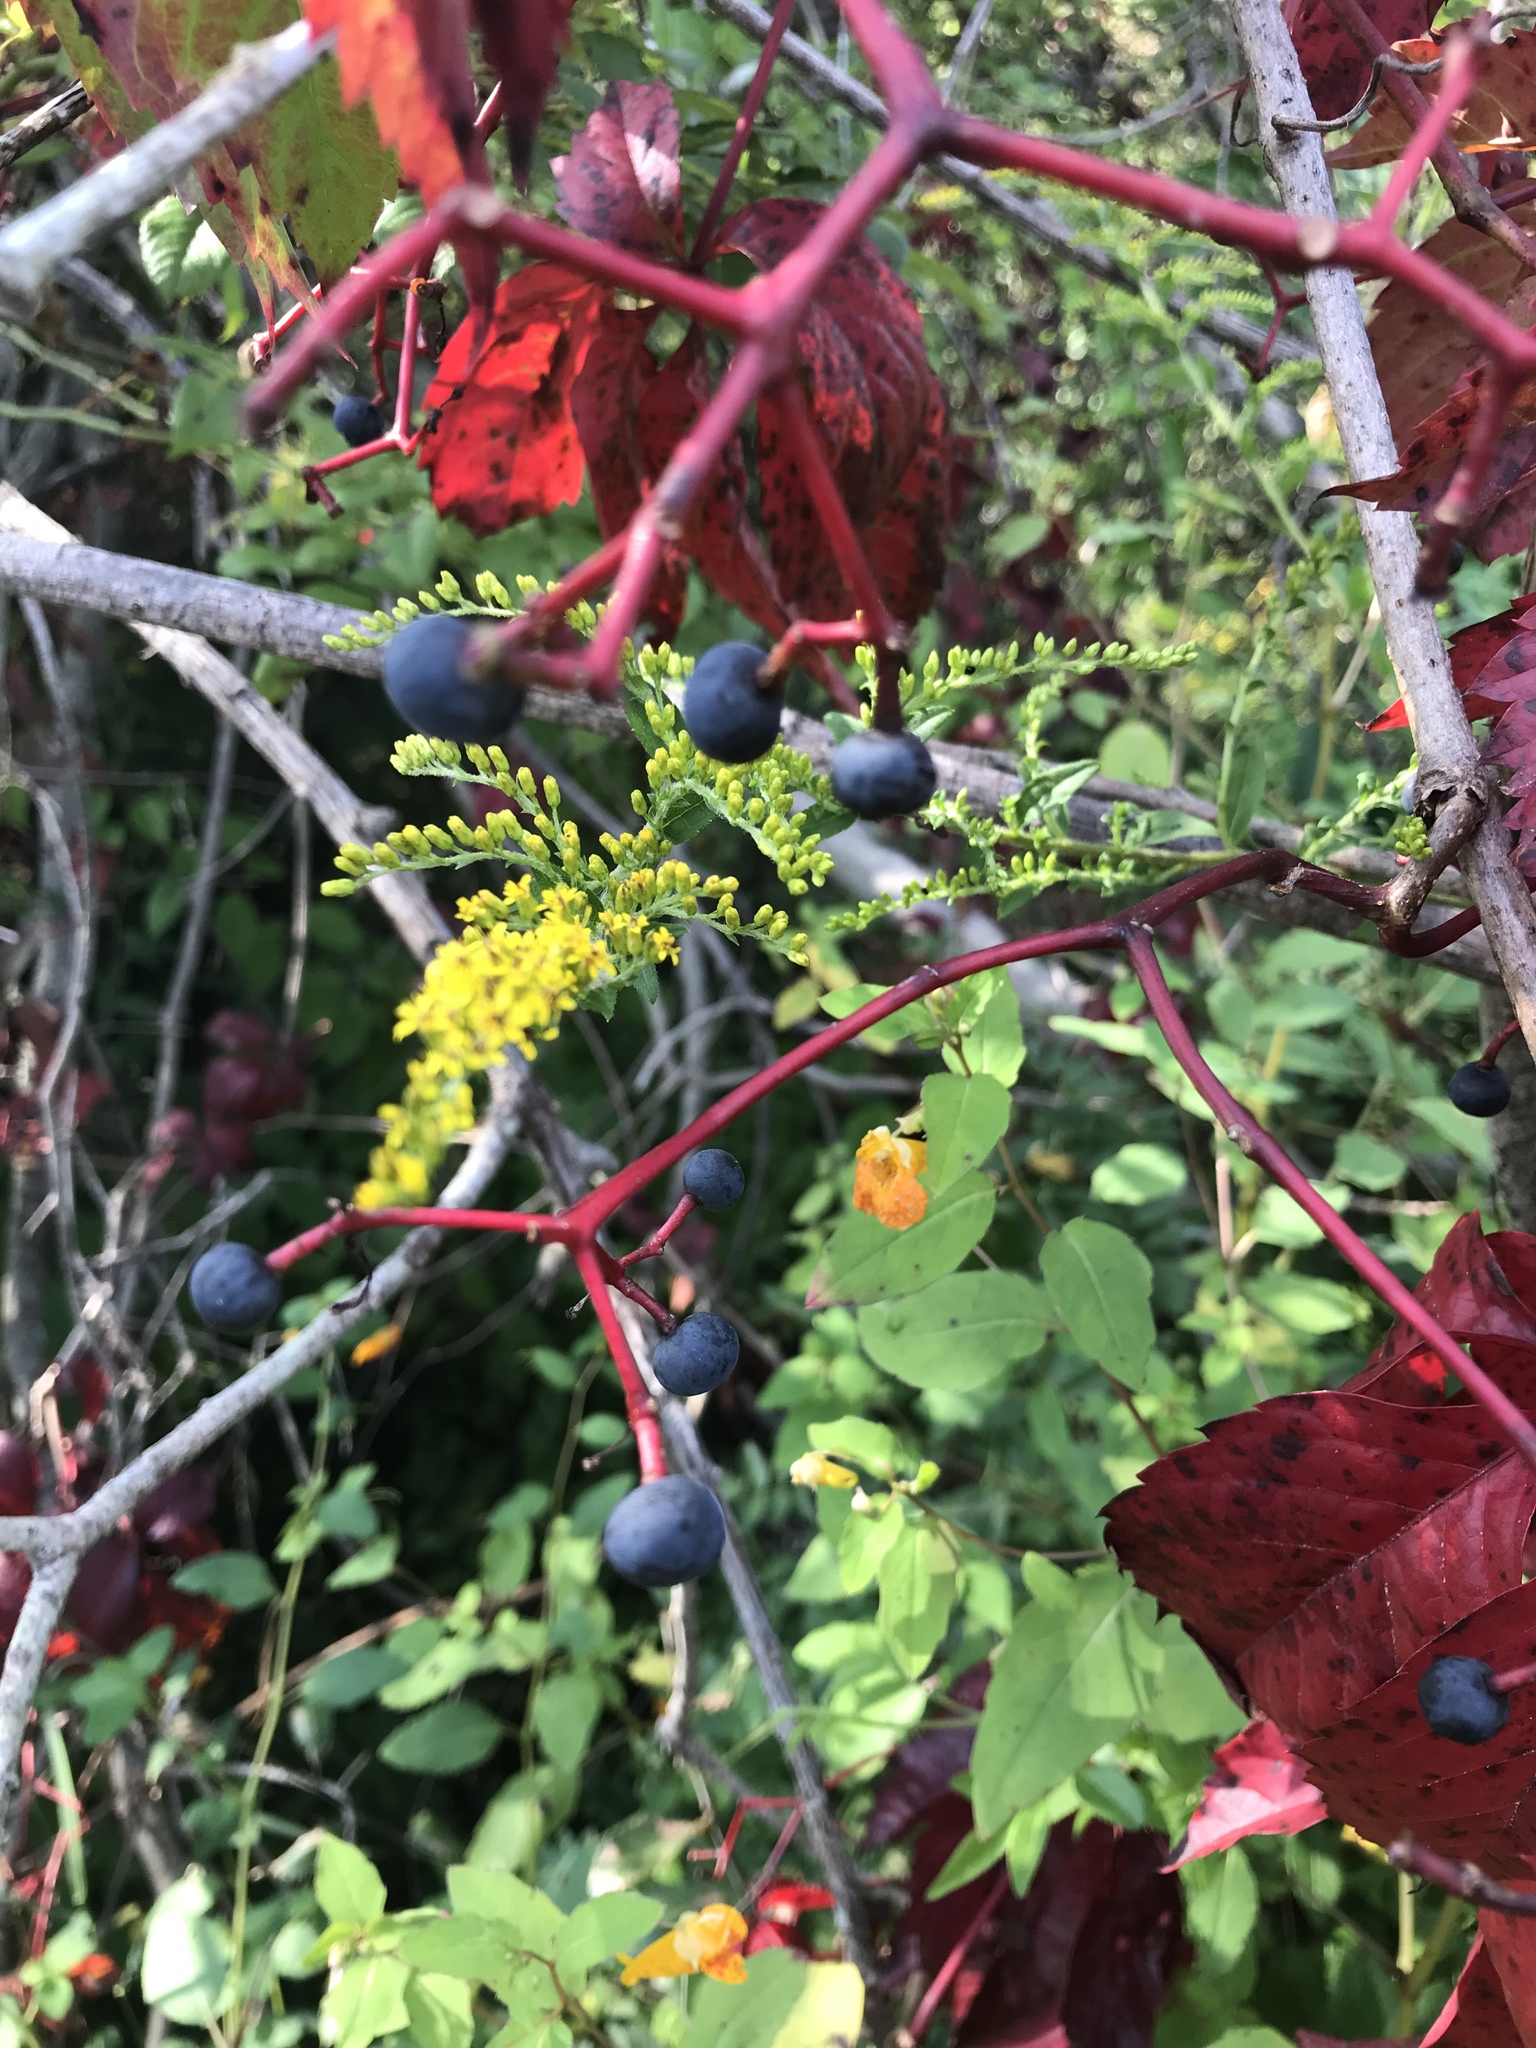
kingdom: Plantae
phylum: Tracheophyta
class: Magnoliopsida
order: Vitales
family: Vitaceae
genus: Parthenocissus
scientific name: Parthenocissus quinquefolia
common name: Virginia-creeper
